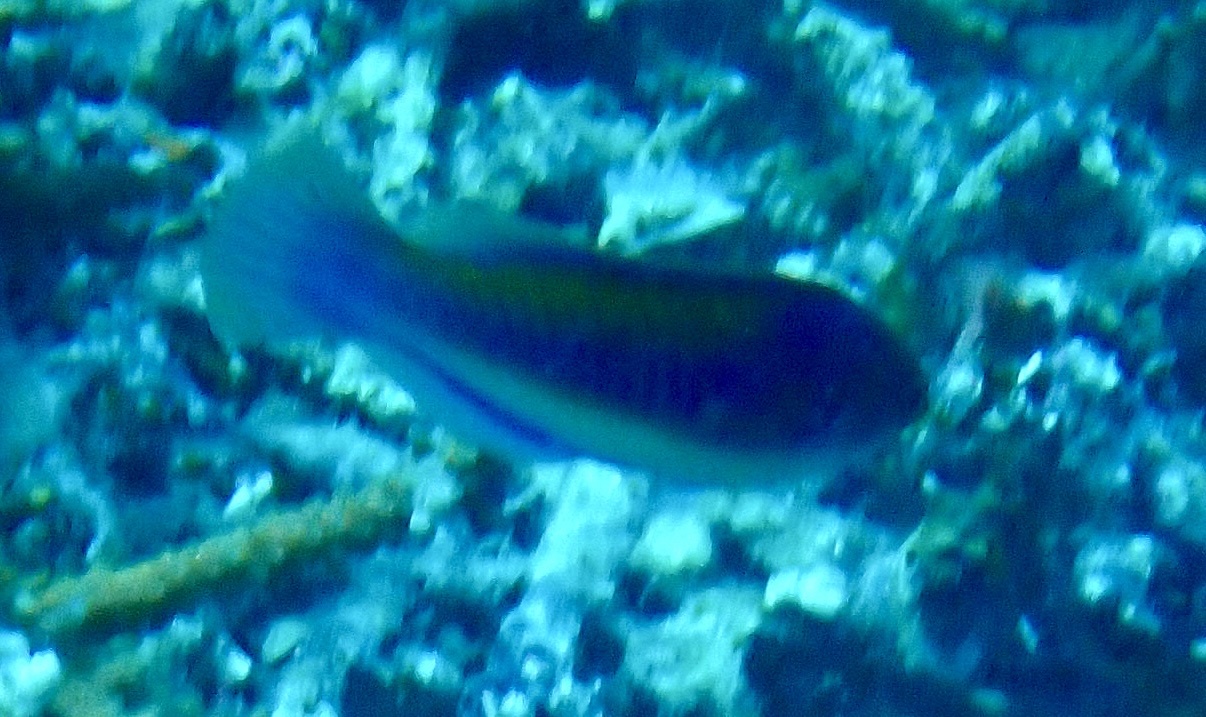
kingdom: Animalia
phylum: Chordata
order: Perciformes
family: Labridae
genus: Cirrhilabrus
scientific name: Cirrhilabrus cyanopleura
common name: Coralline wrasse
